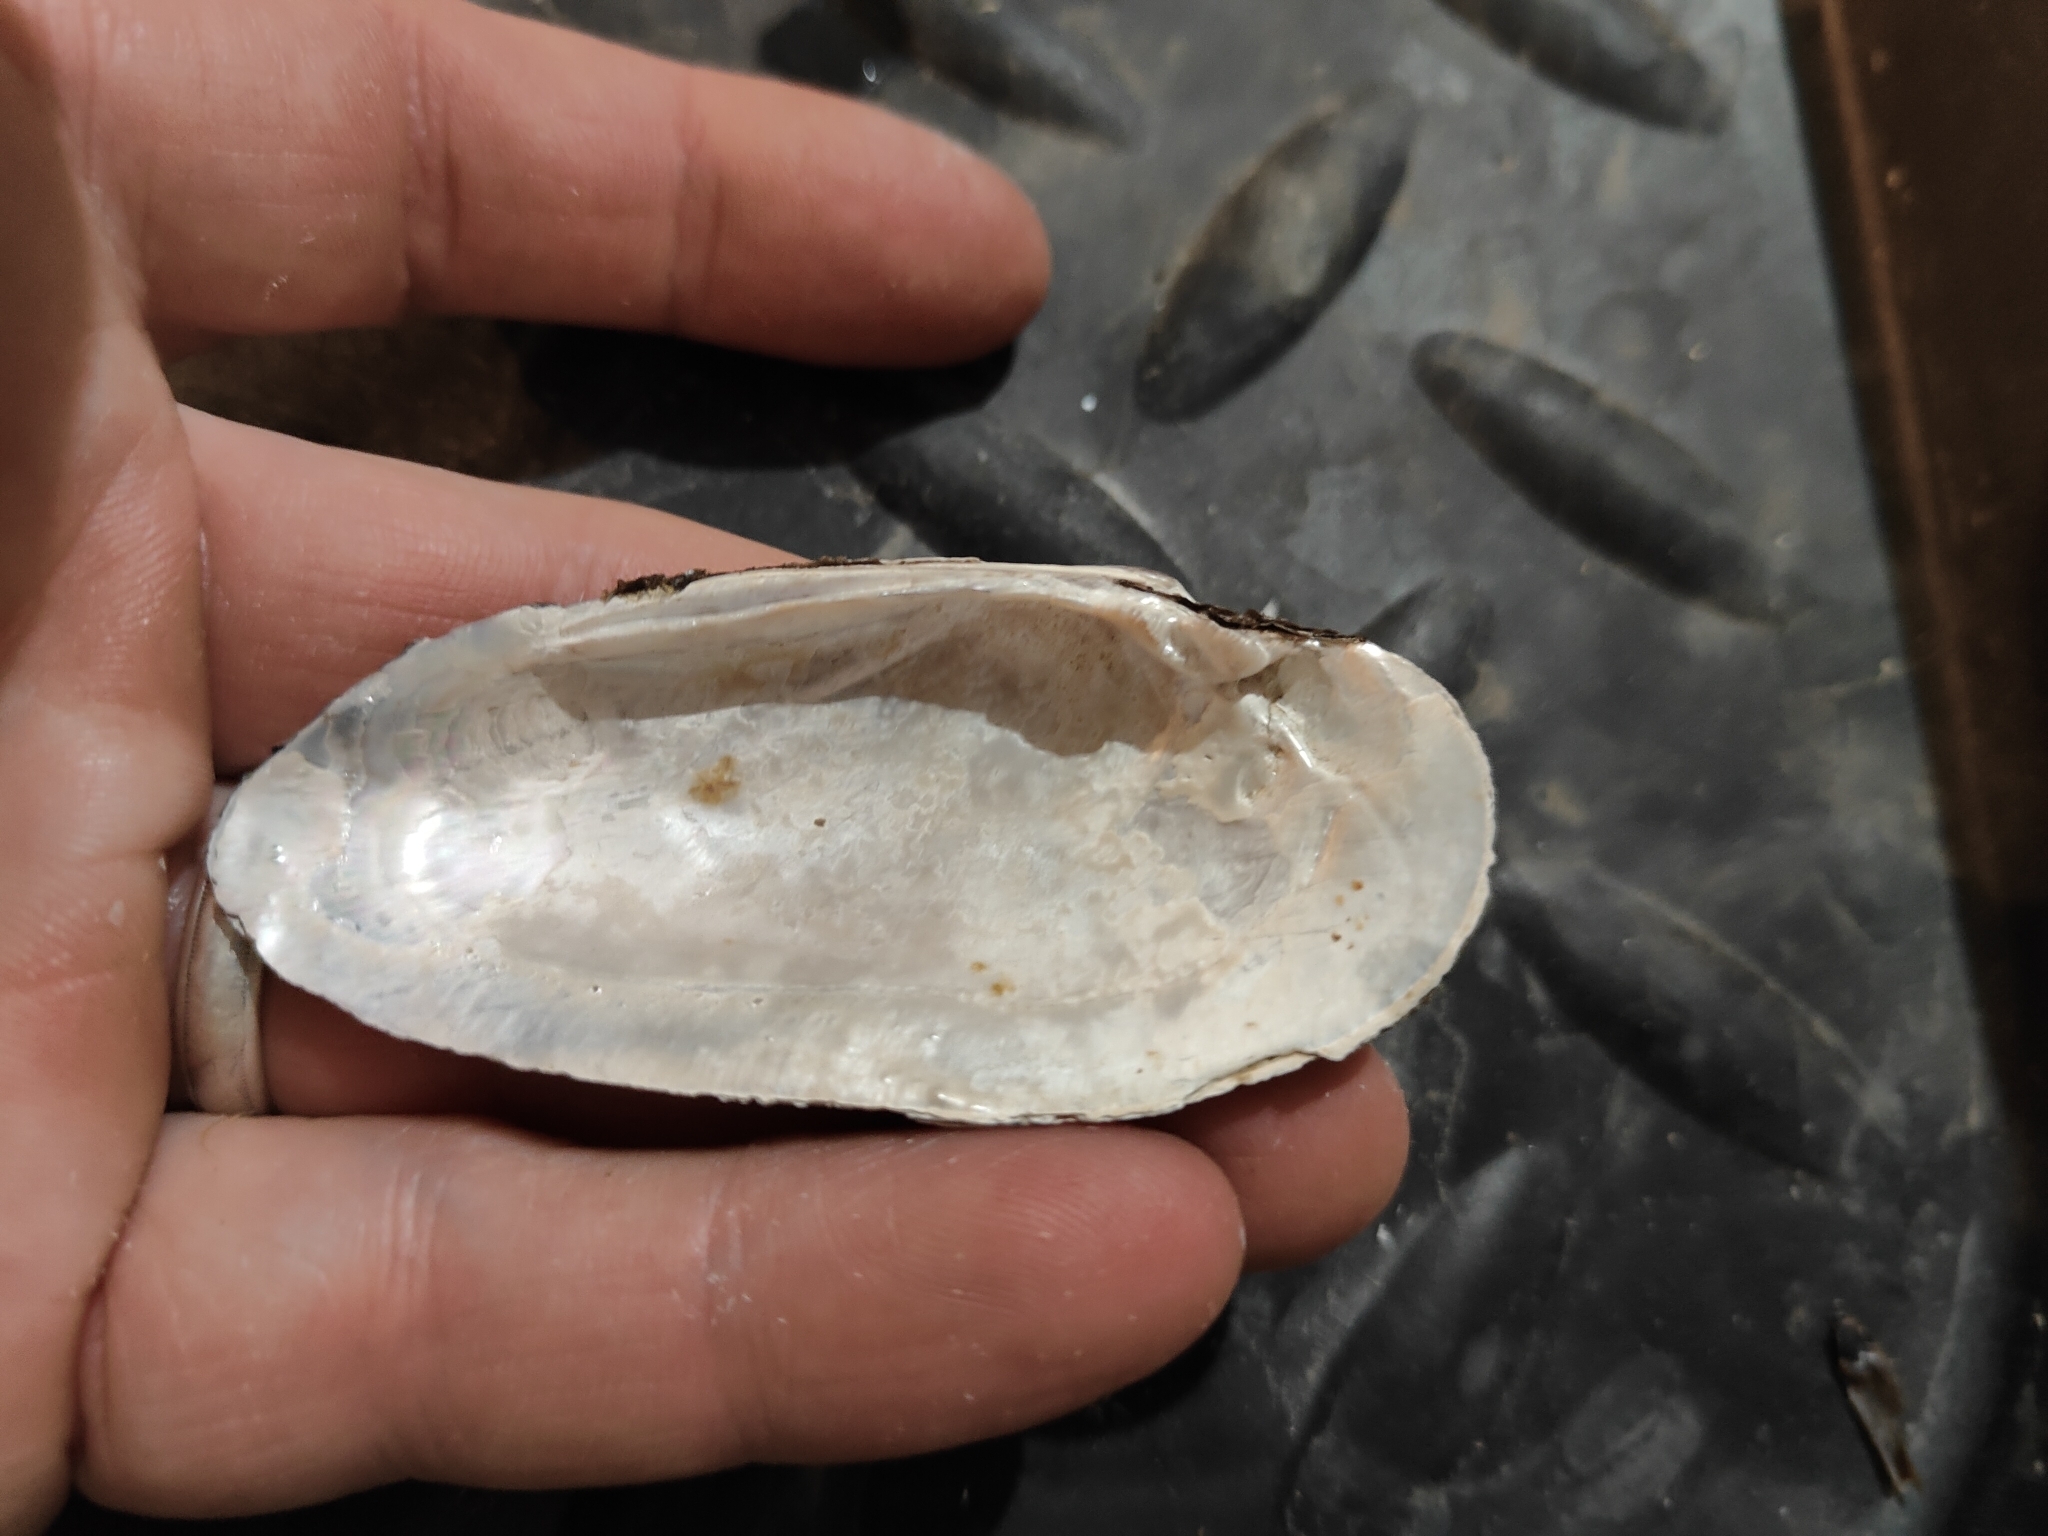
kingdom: Animalia
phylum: Mollusca
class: Bivalvia
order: Unionida
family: Unionidae
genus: Ligumia
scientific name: Ligumia recta
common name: Black sandshell
